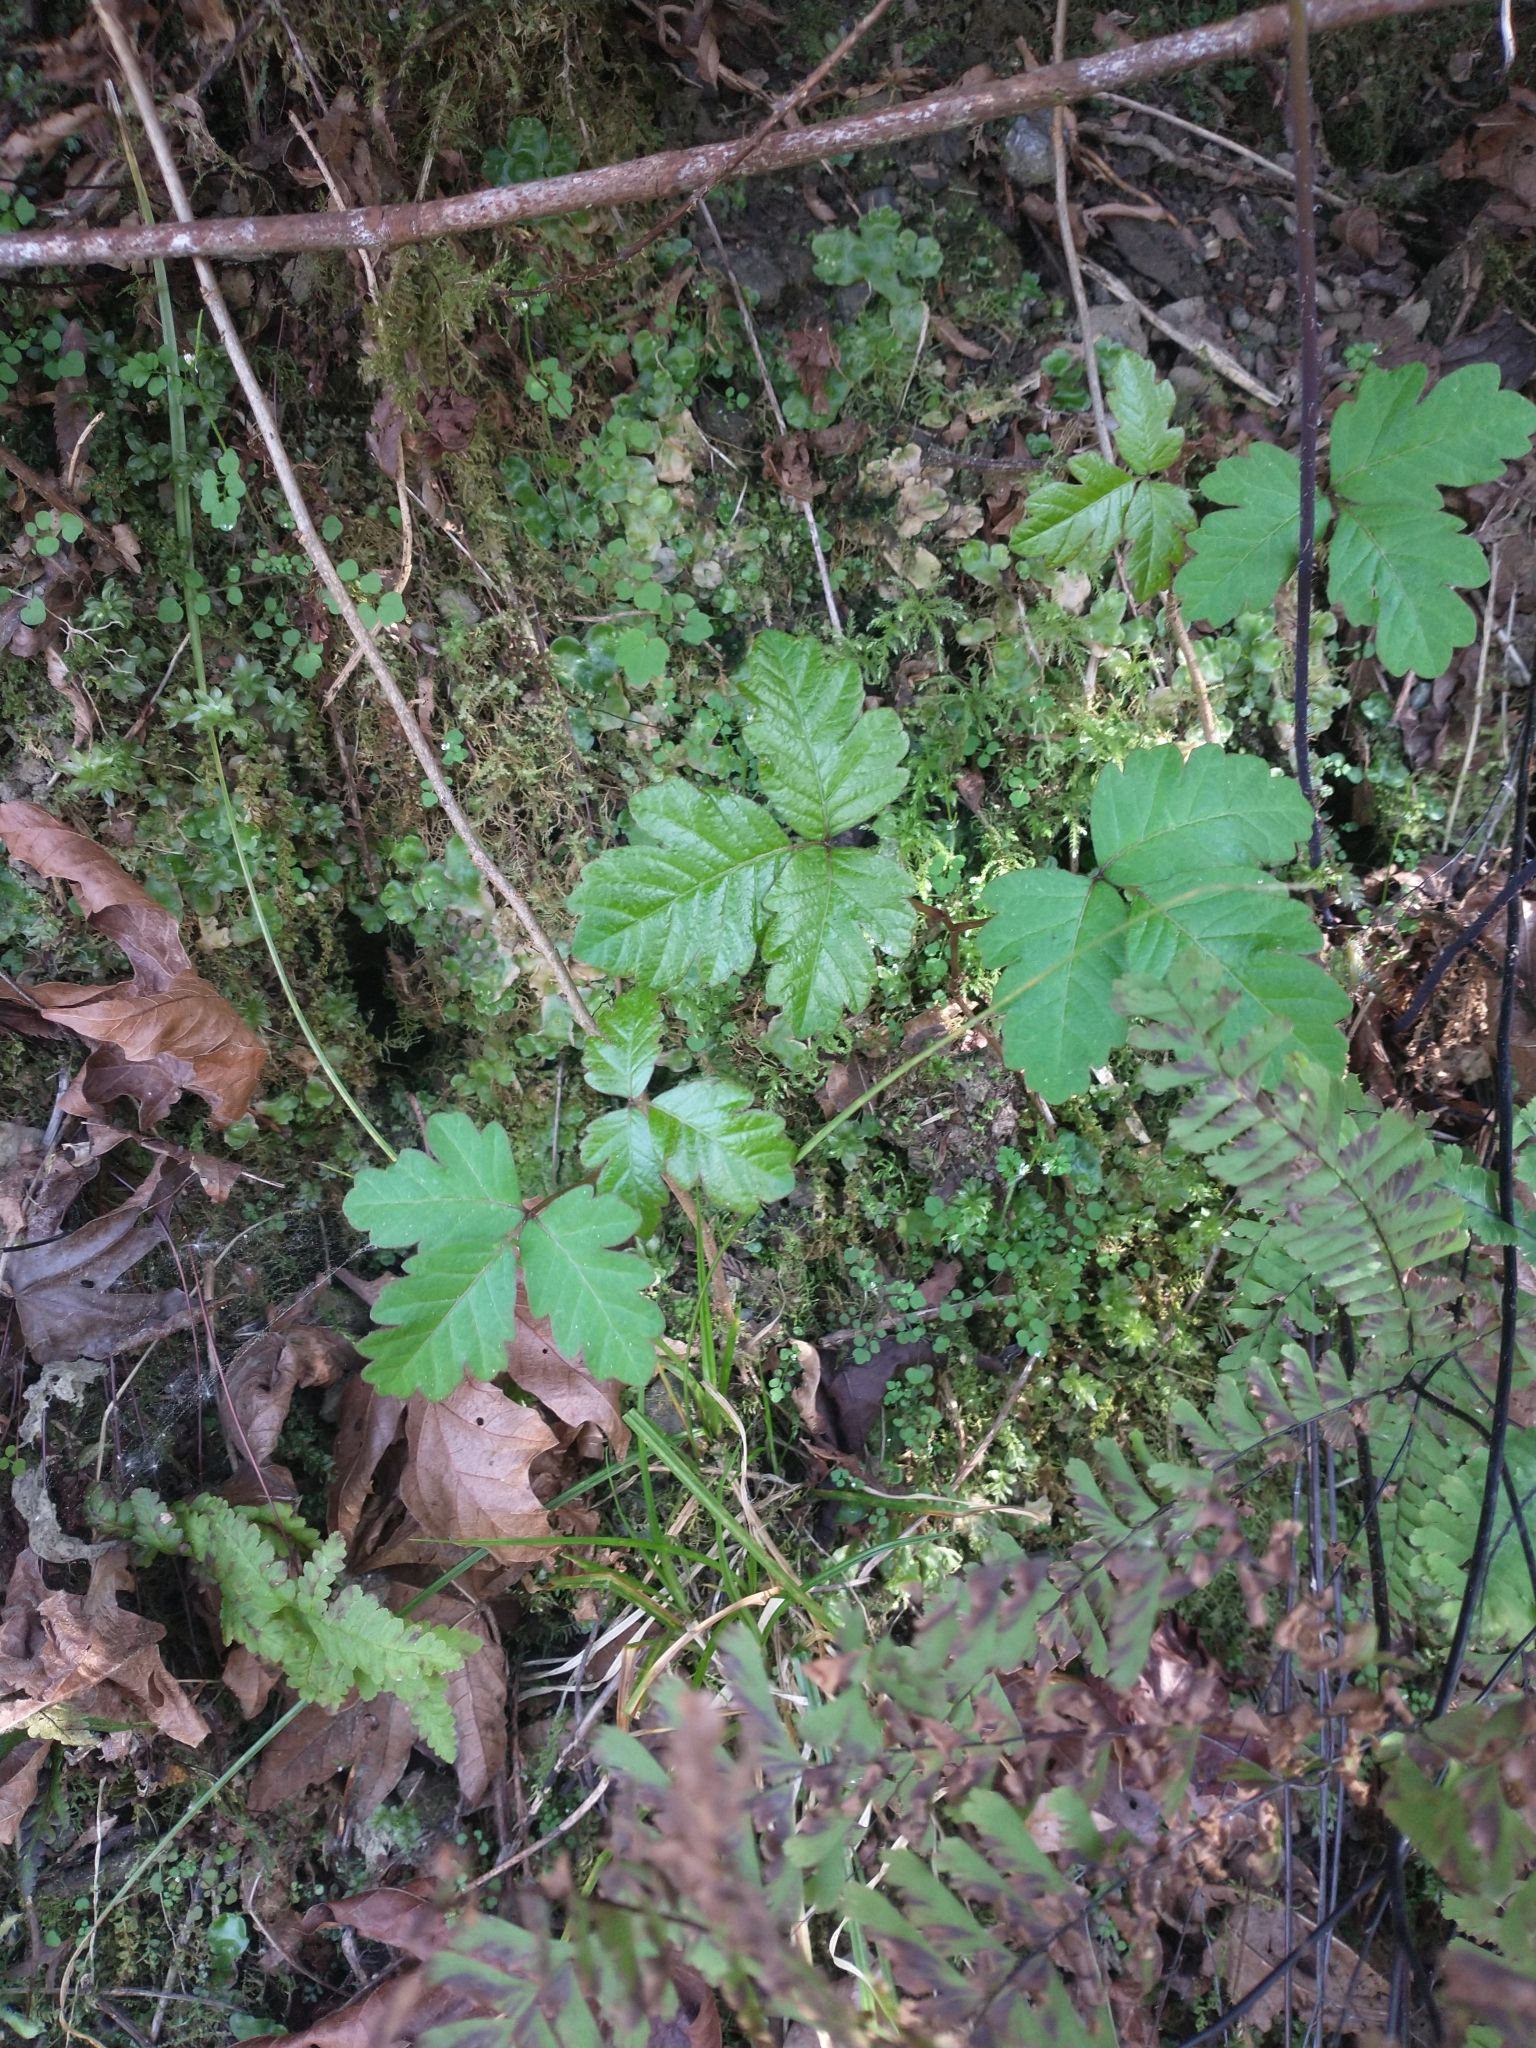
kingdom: Plantae
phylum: Tracheophyta
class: Magnoliopsida
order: Sapindales
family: Anacardiaceae
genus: Toxicodendron
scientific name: Toxicodendron diversilobum
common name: Pacific poison-oak
